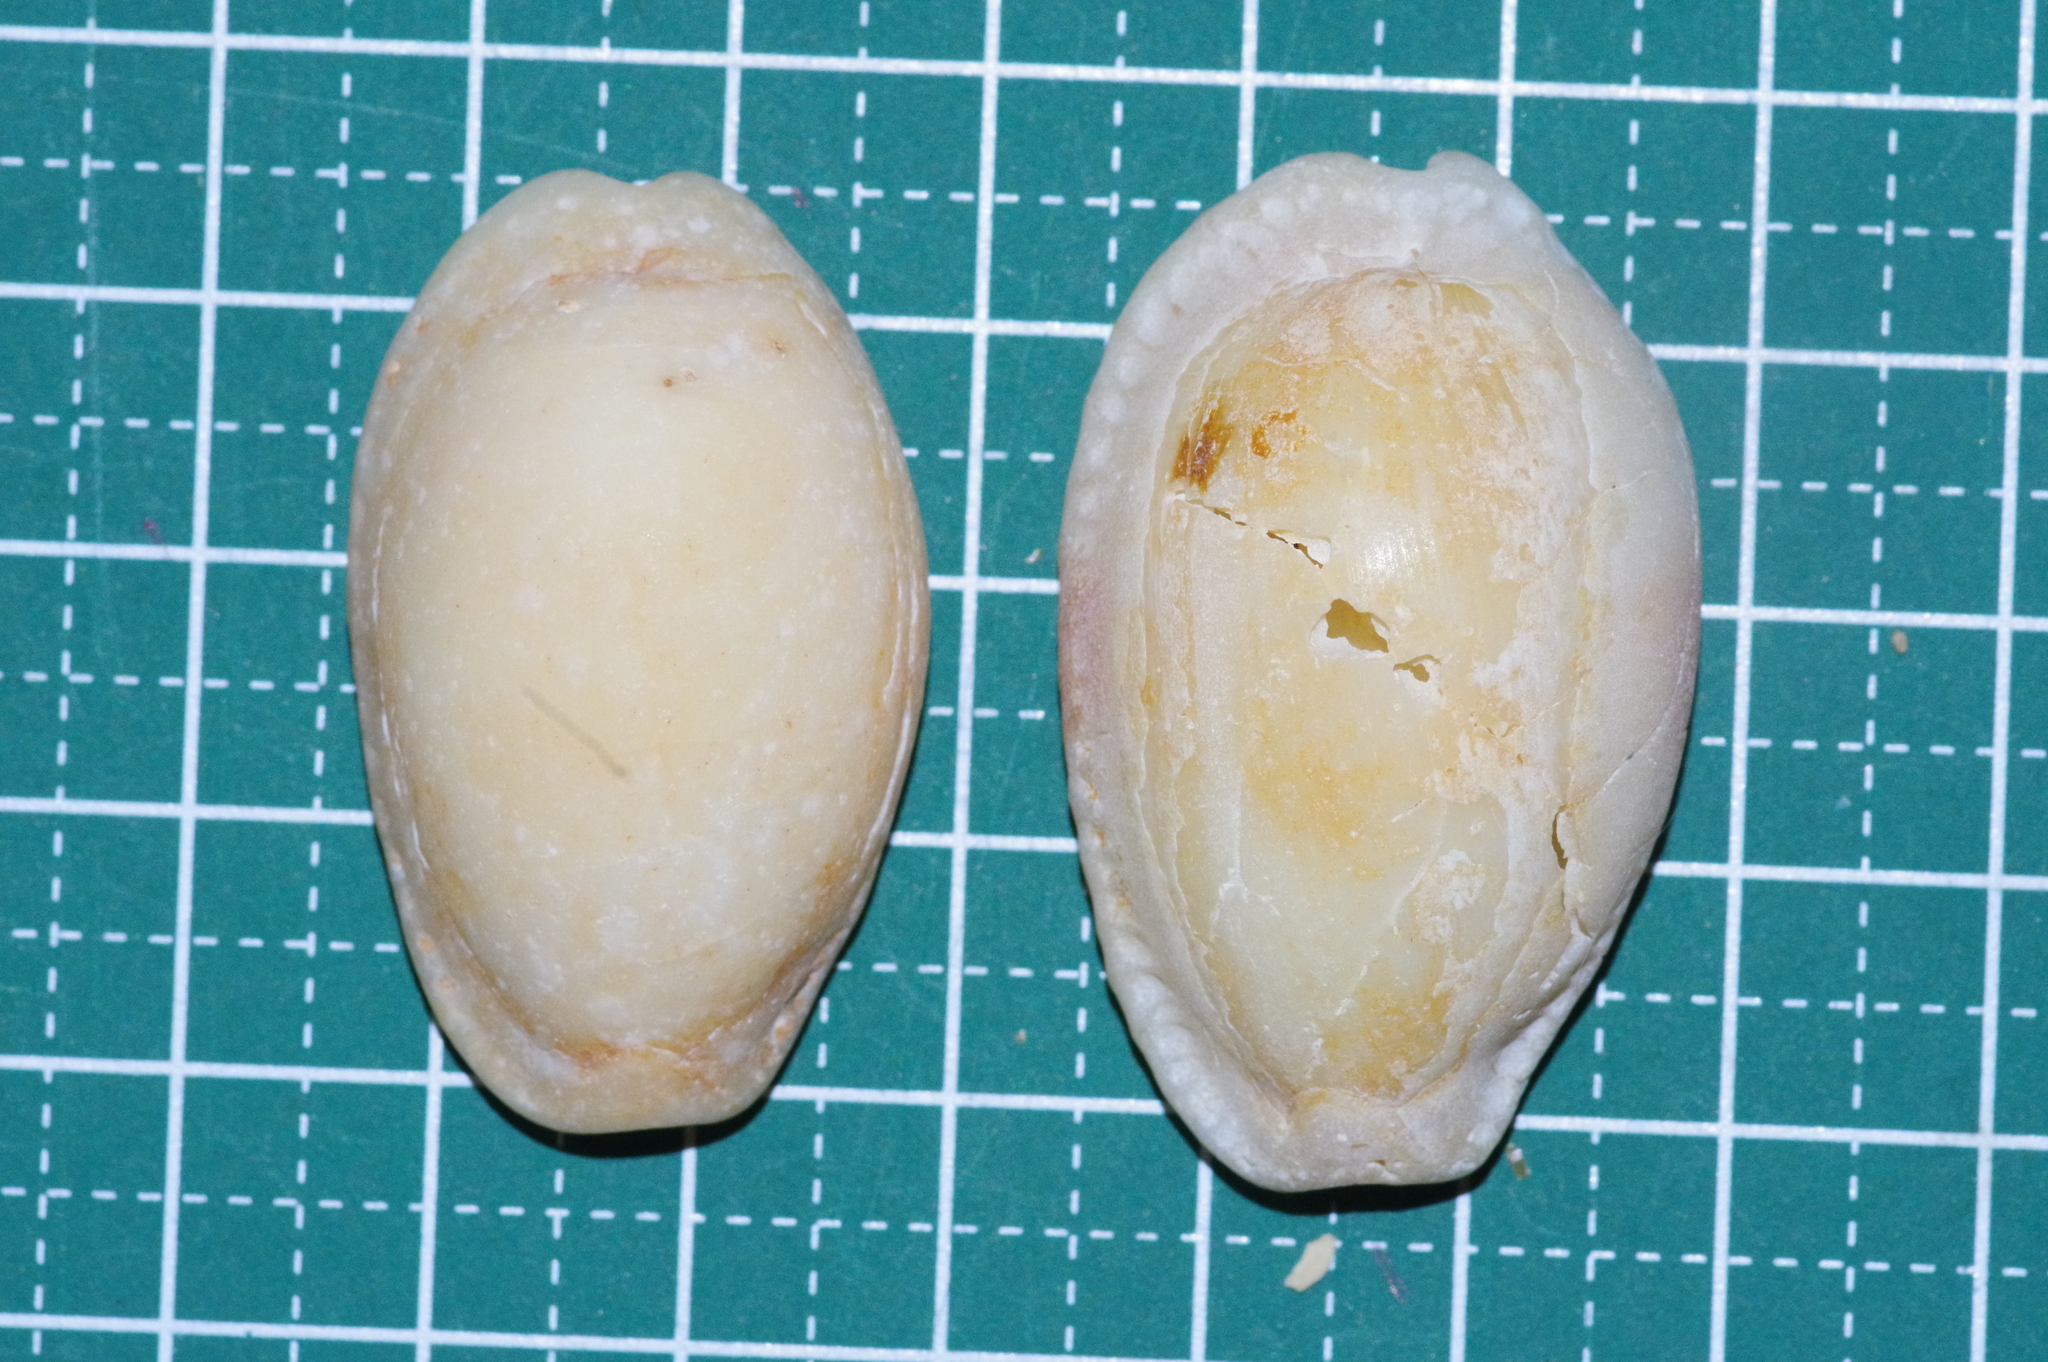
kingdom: Animalia
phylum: Mollusca
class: Gastropoda
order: Littorinimorpha
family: Cypraeidae
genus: Naria
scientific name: Naria erosa
